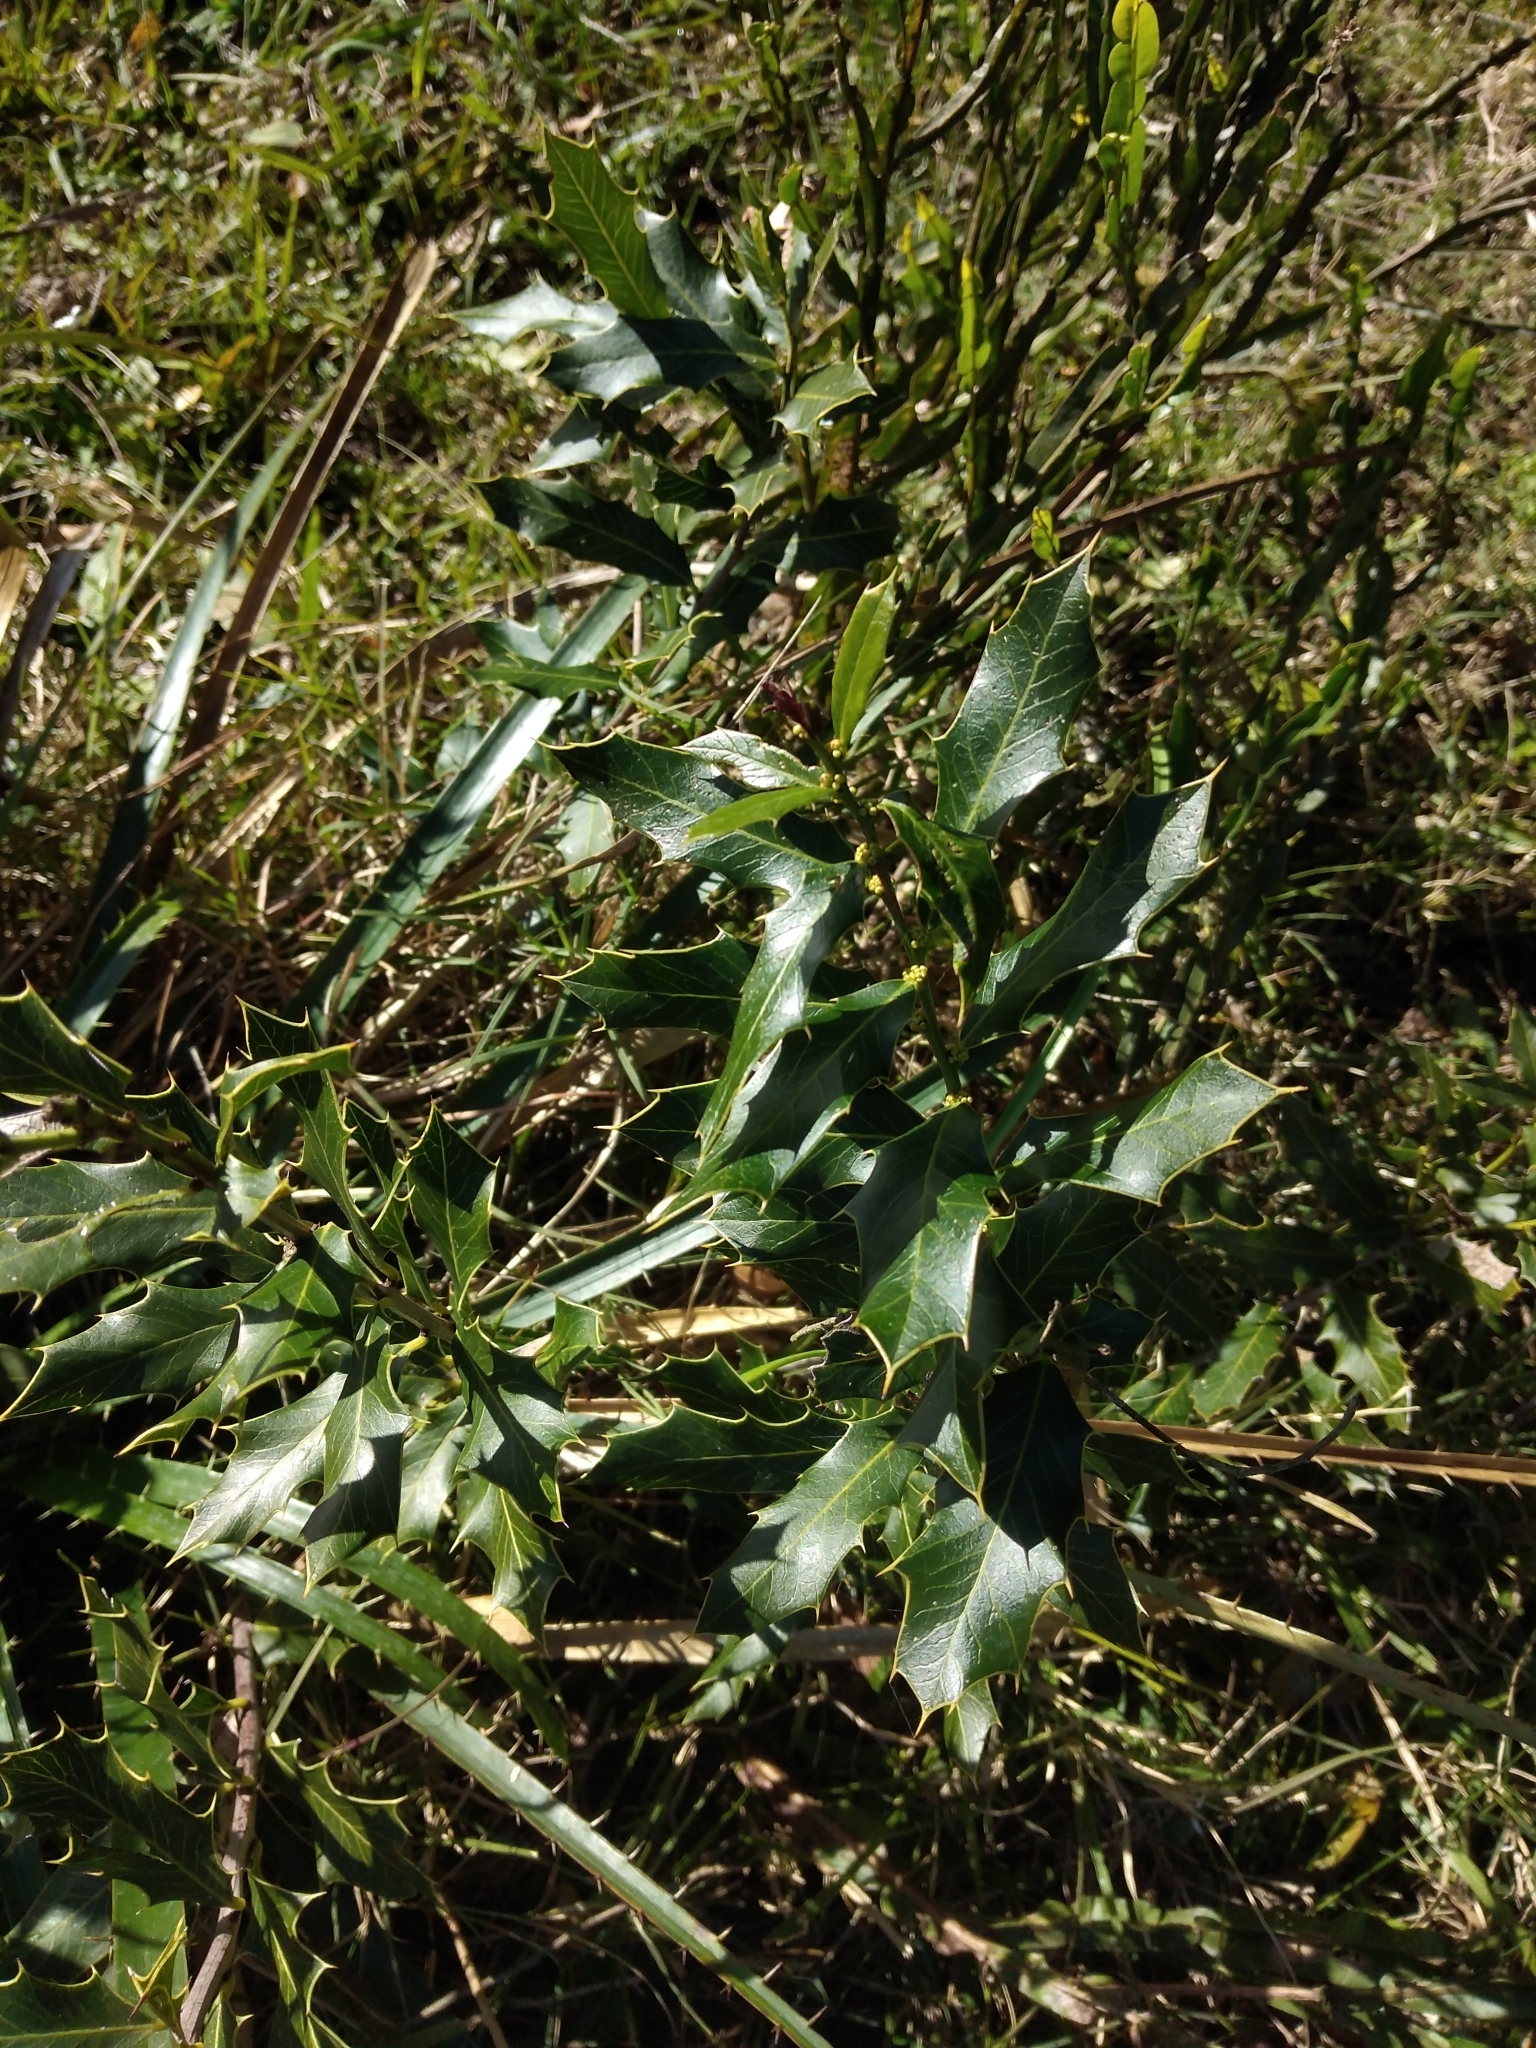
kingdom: Plantae
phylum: Tracheophyta
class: Magnoliopsida
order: Celastrales
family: Celastraceae
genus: Monteverdia
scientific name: Monteverdia
